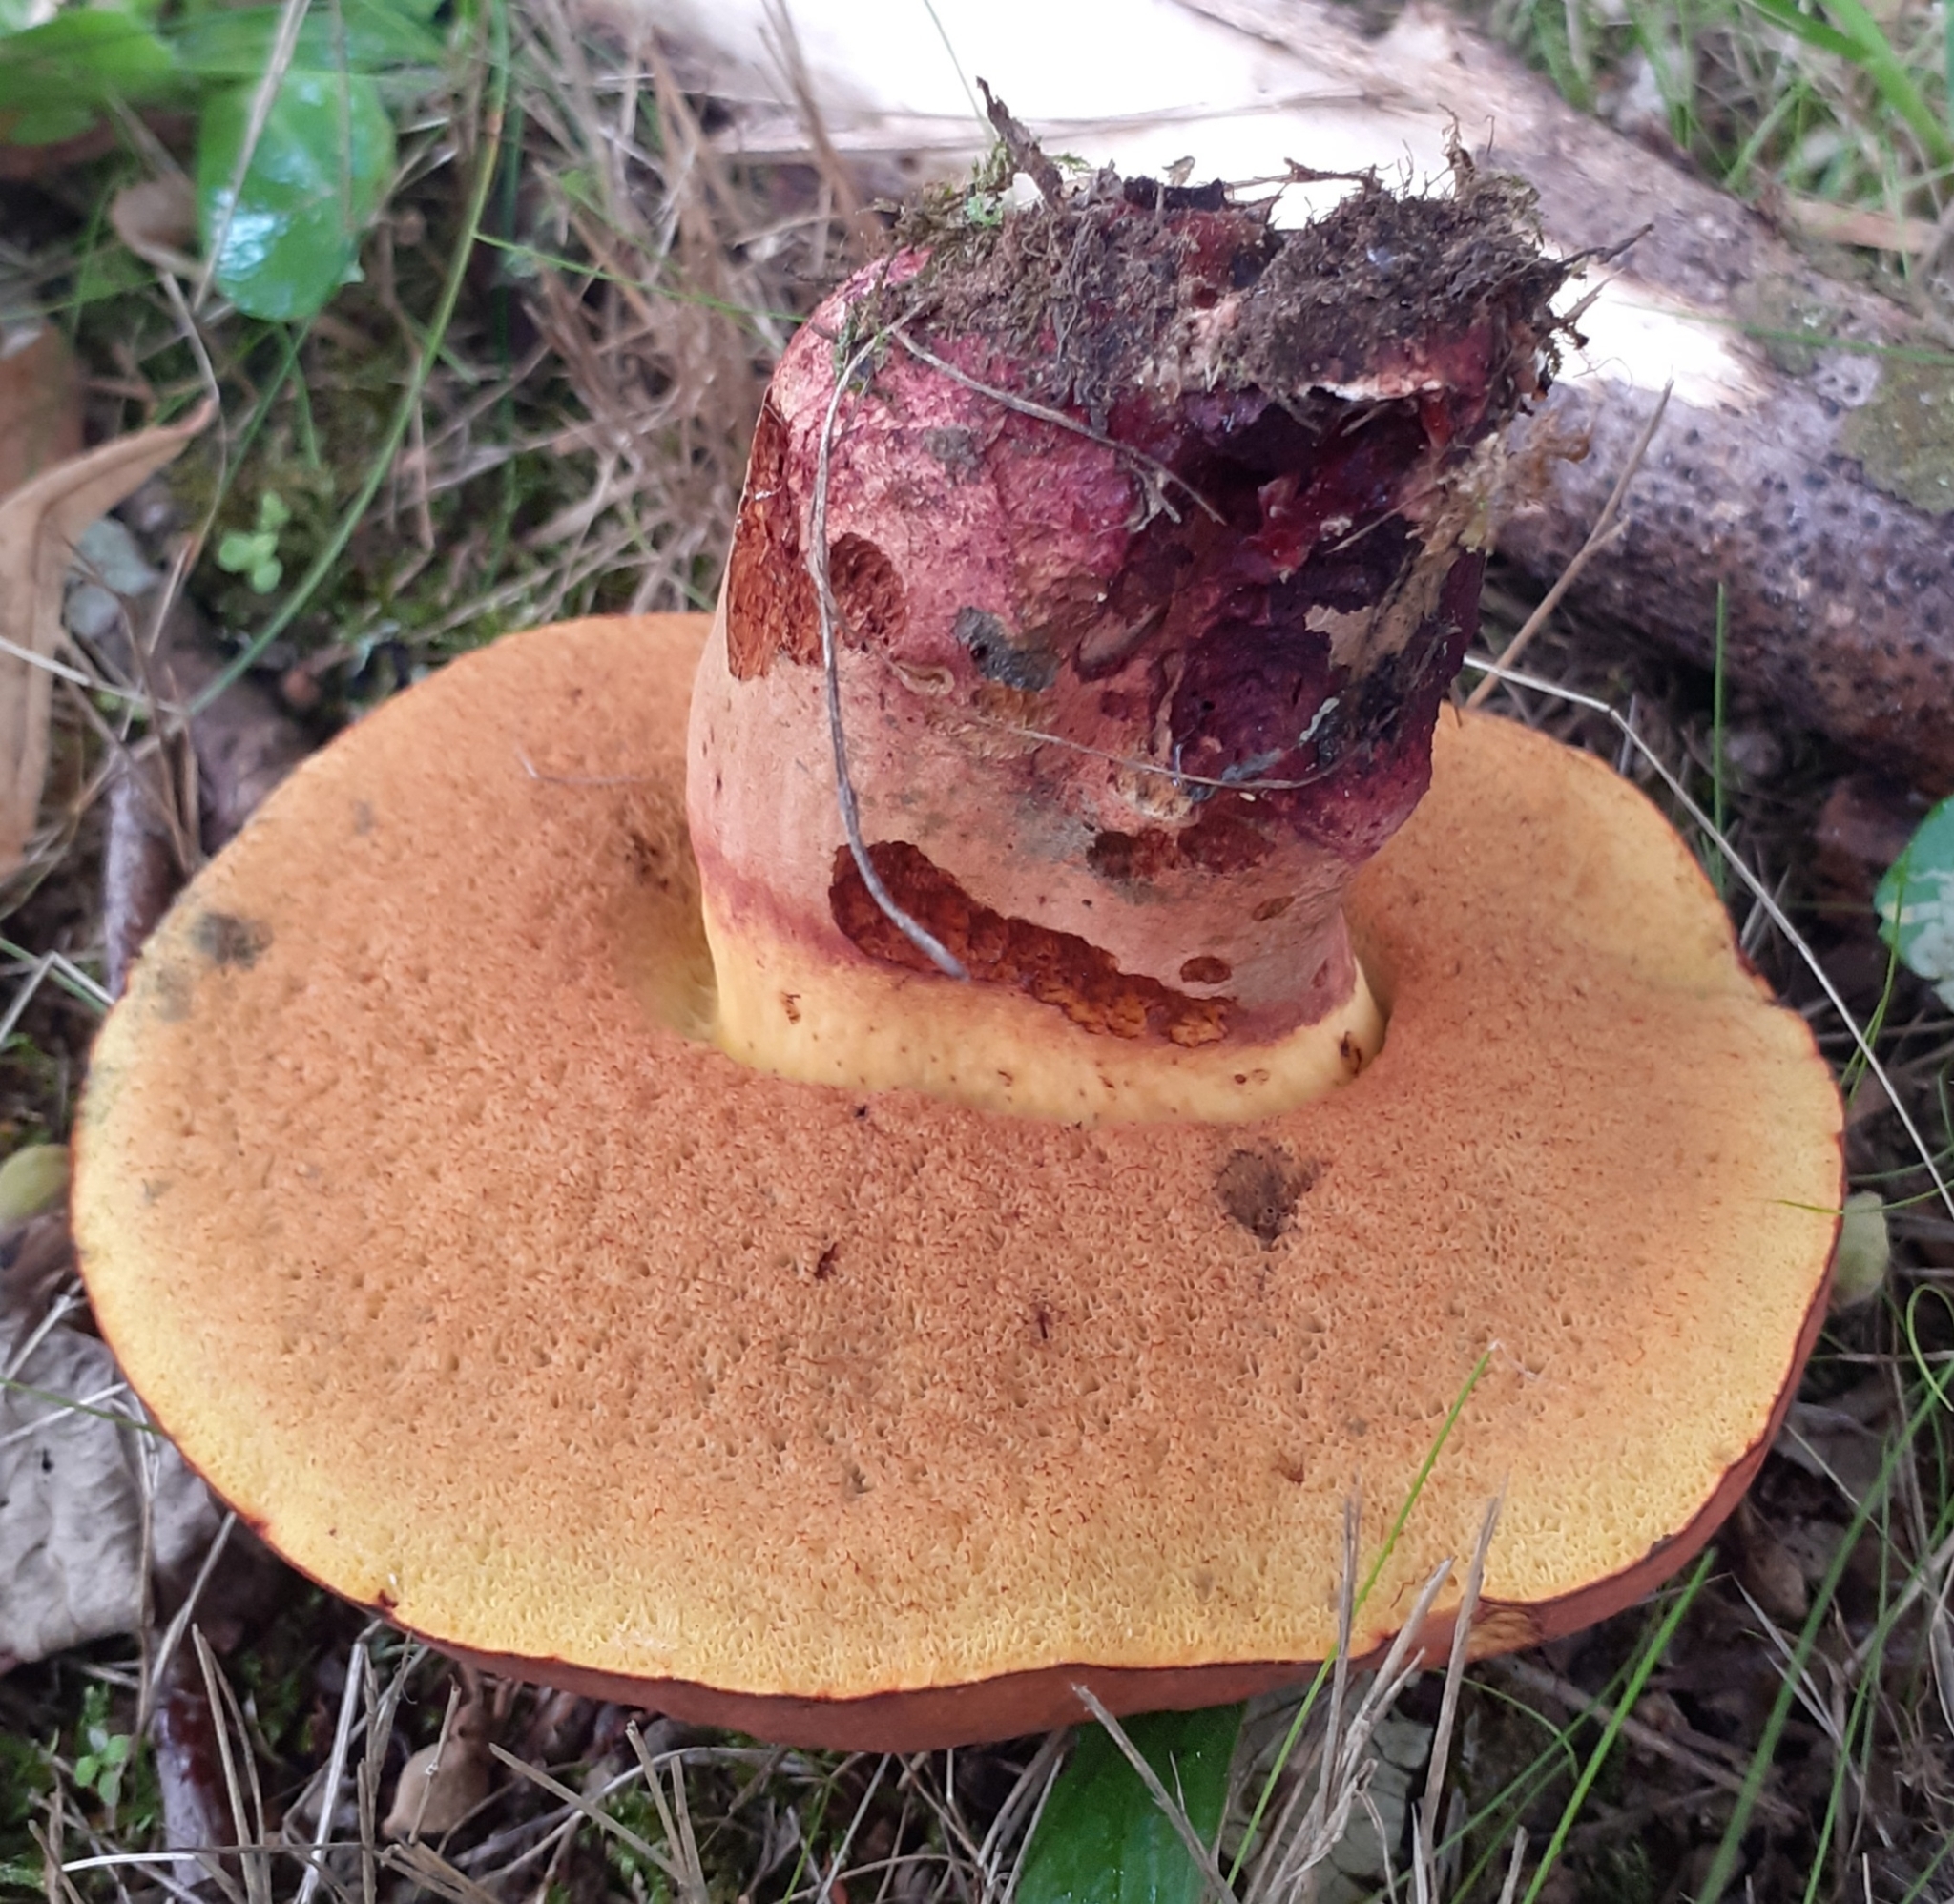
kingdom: Fungi
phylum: Basidiomycota
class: Agaricomycetes
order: Boletales
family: Boletaceae
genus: Suillellus
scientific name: Suillellus queletii
